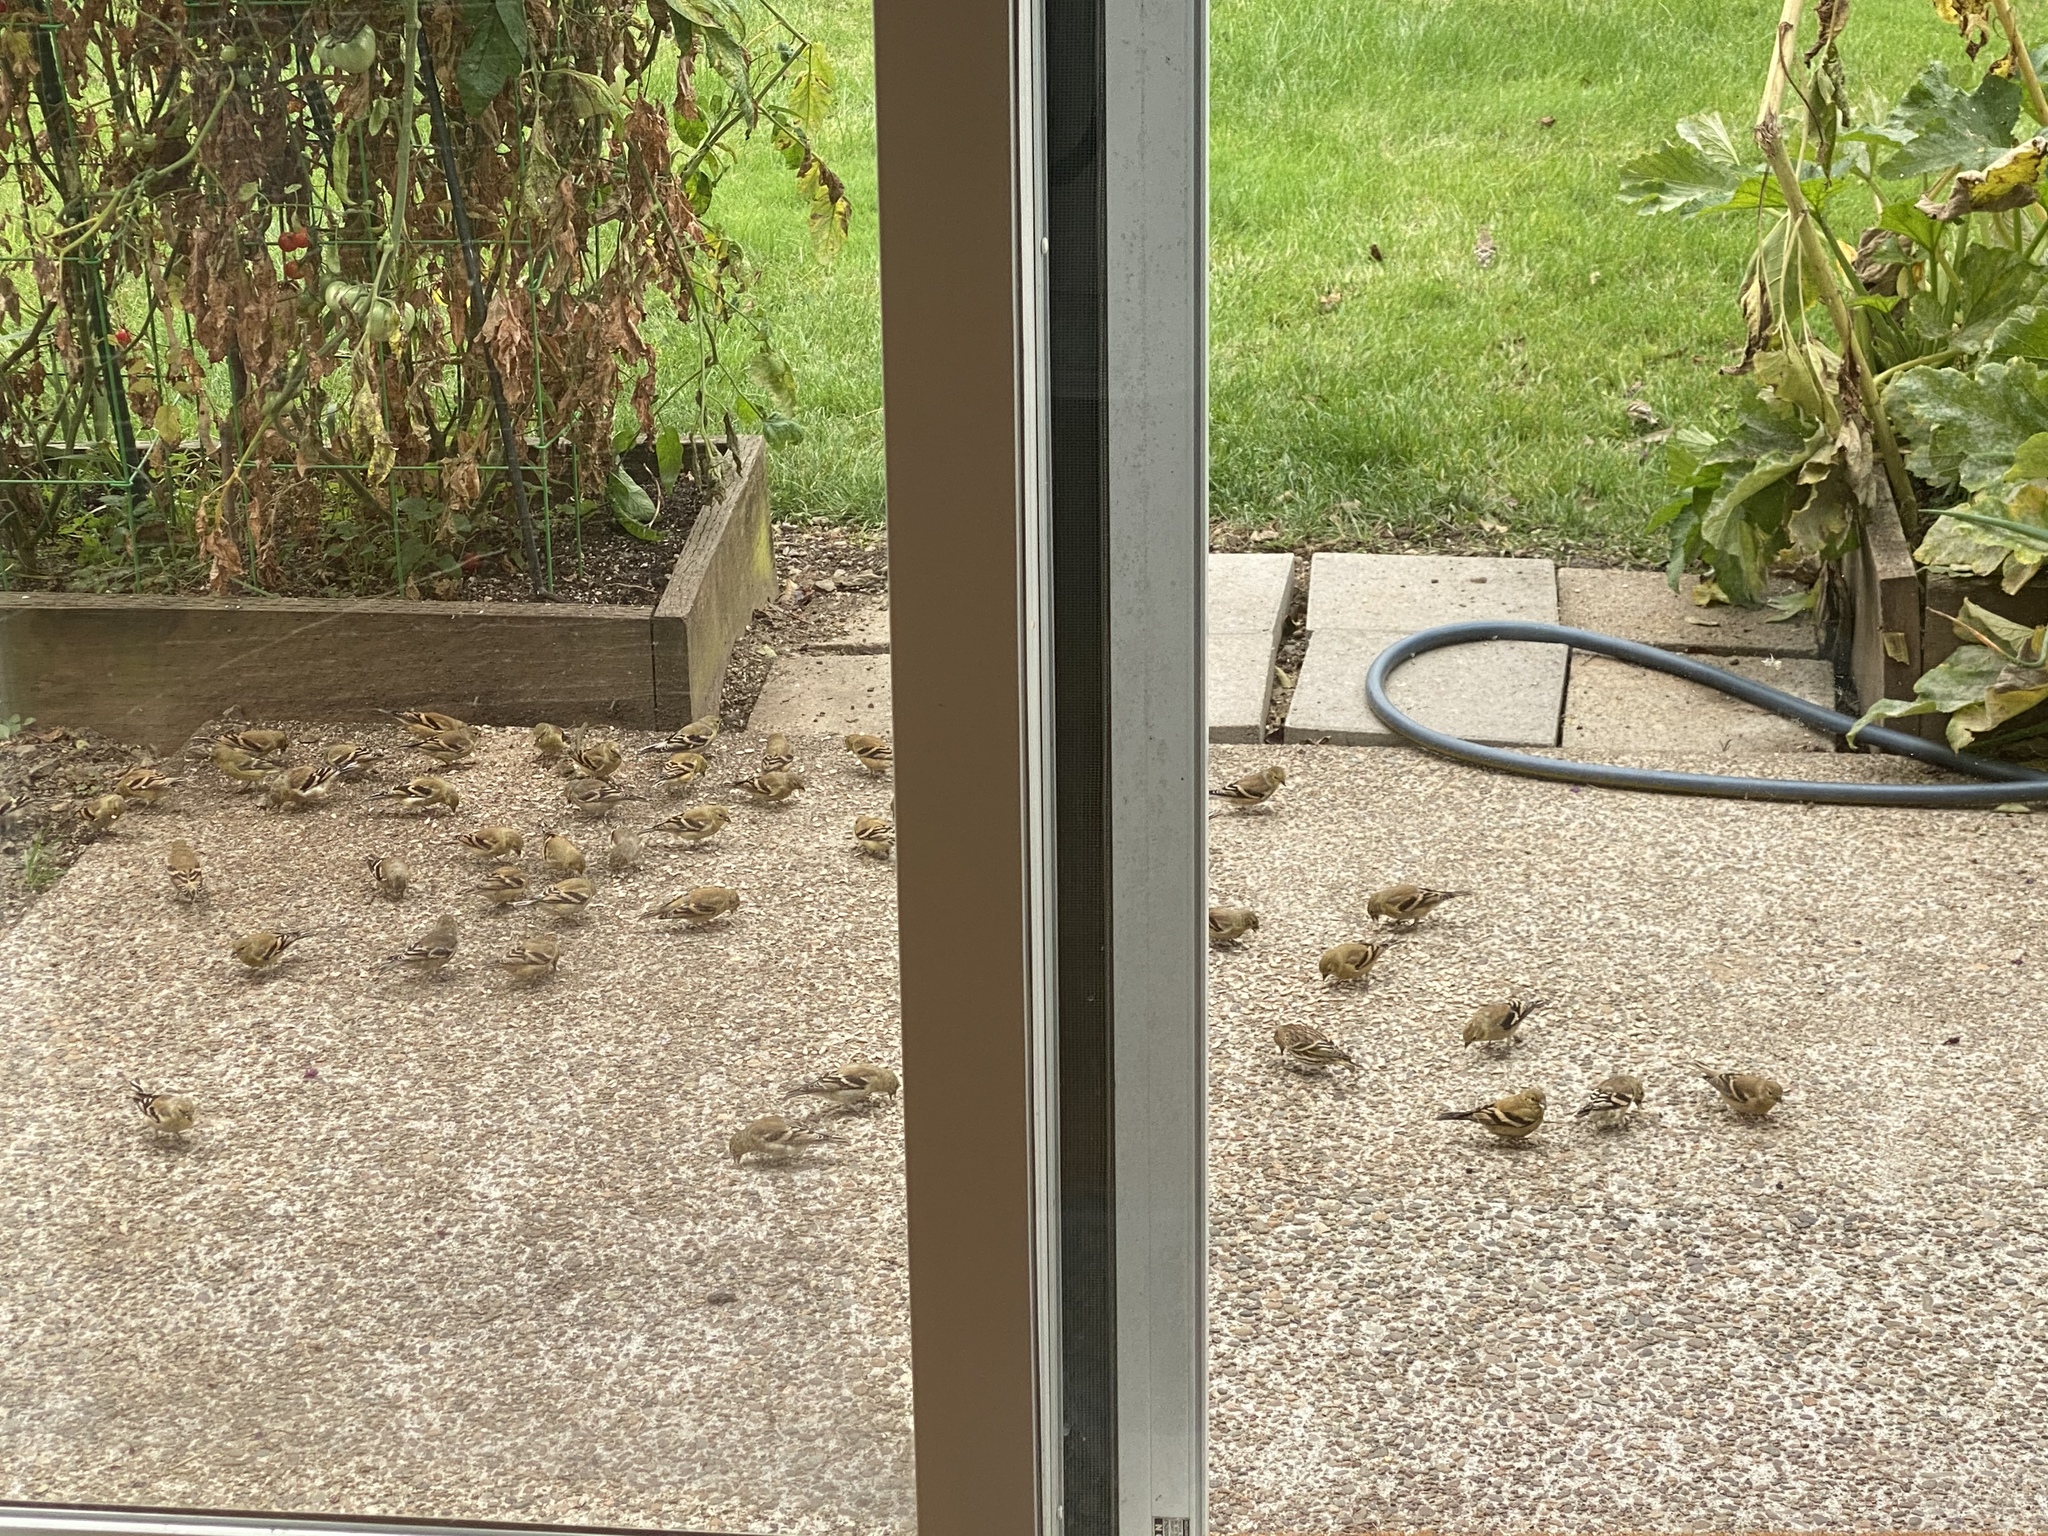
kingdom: Animalia
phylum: Chordata
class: Aves
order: Passeriformes
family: Fringillidae
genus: Spinus
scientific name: Spinus tristis
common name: American goldfinch
